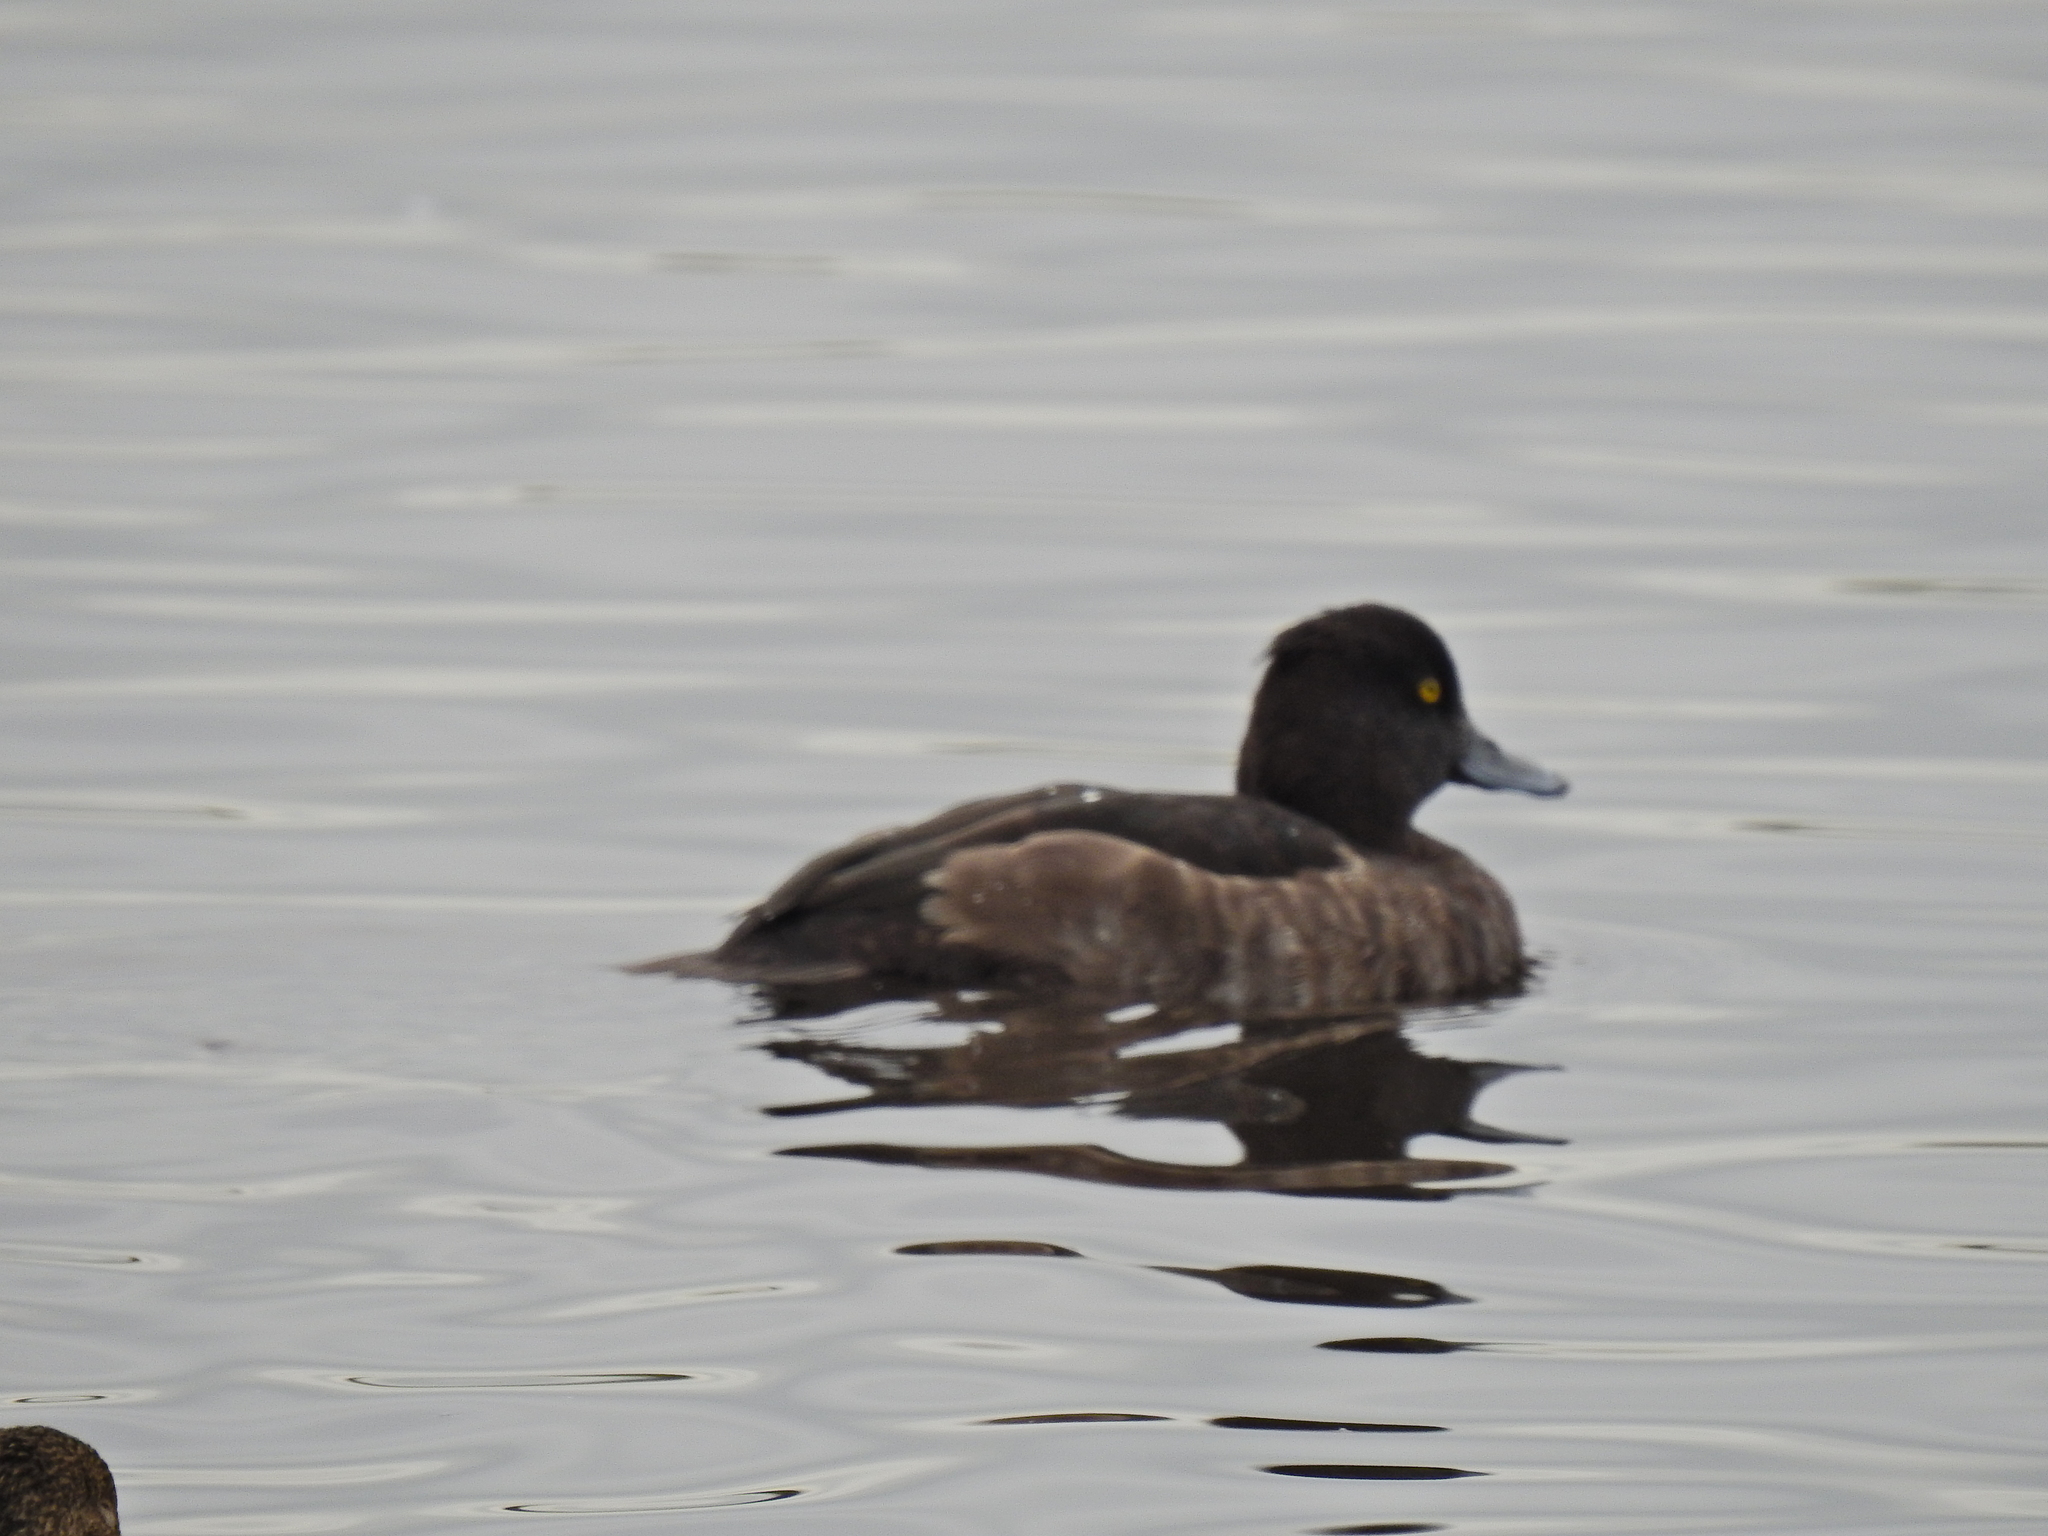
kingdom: Animalia
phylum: Chordata
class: Aves
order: Anseriformes
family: Anatidae
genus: Aythya
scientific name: Aythya fuligula
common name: Tufted duck
